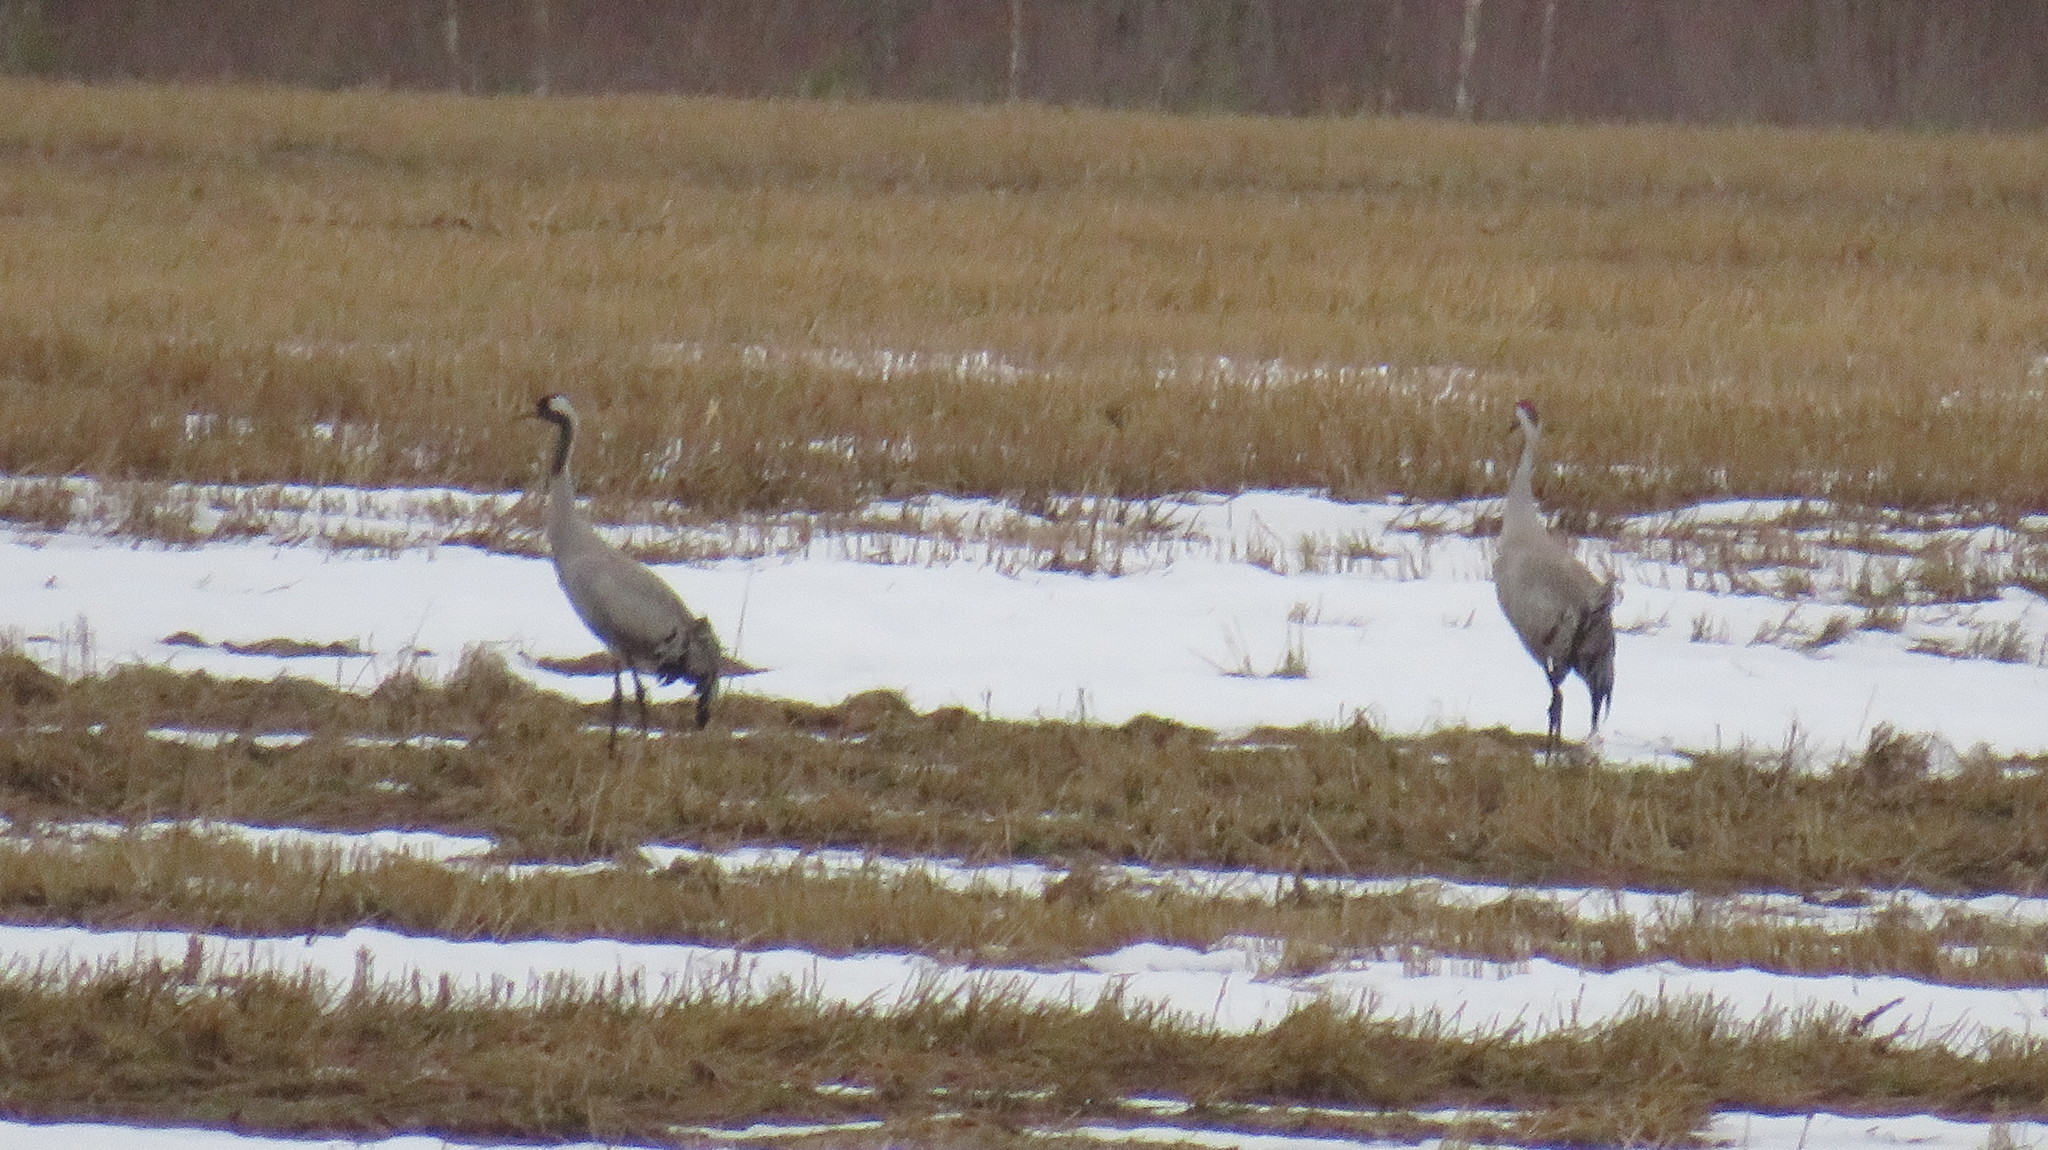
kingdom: Animalia
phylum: Chordata
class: Aves
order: Gruiformes
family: Gruidae
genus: Grus
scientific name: Grus grus
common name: Common crane
